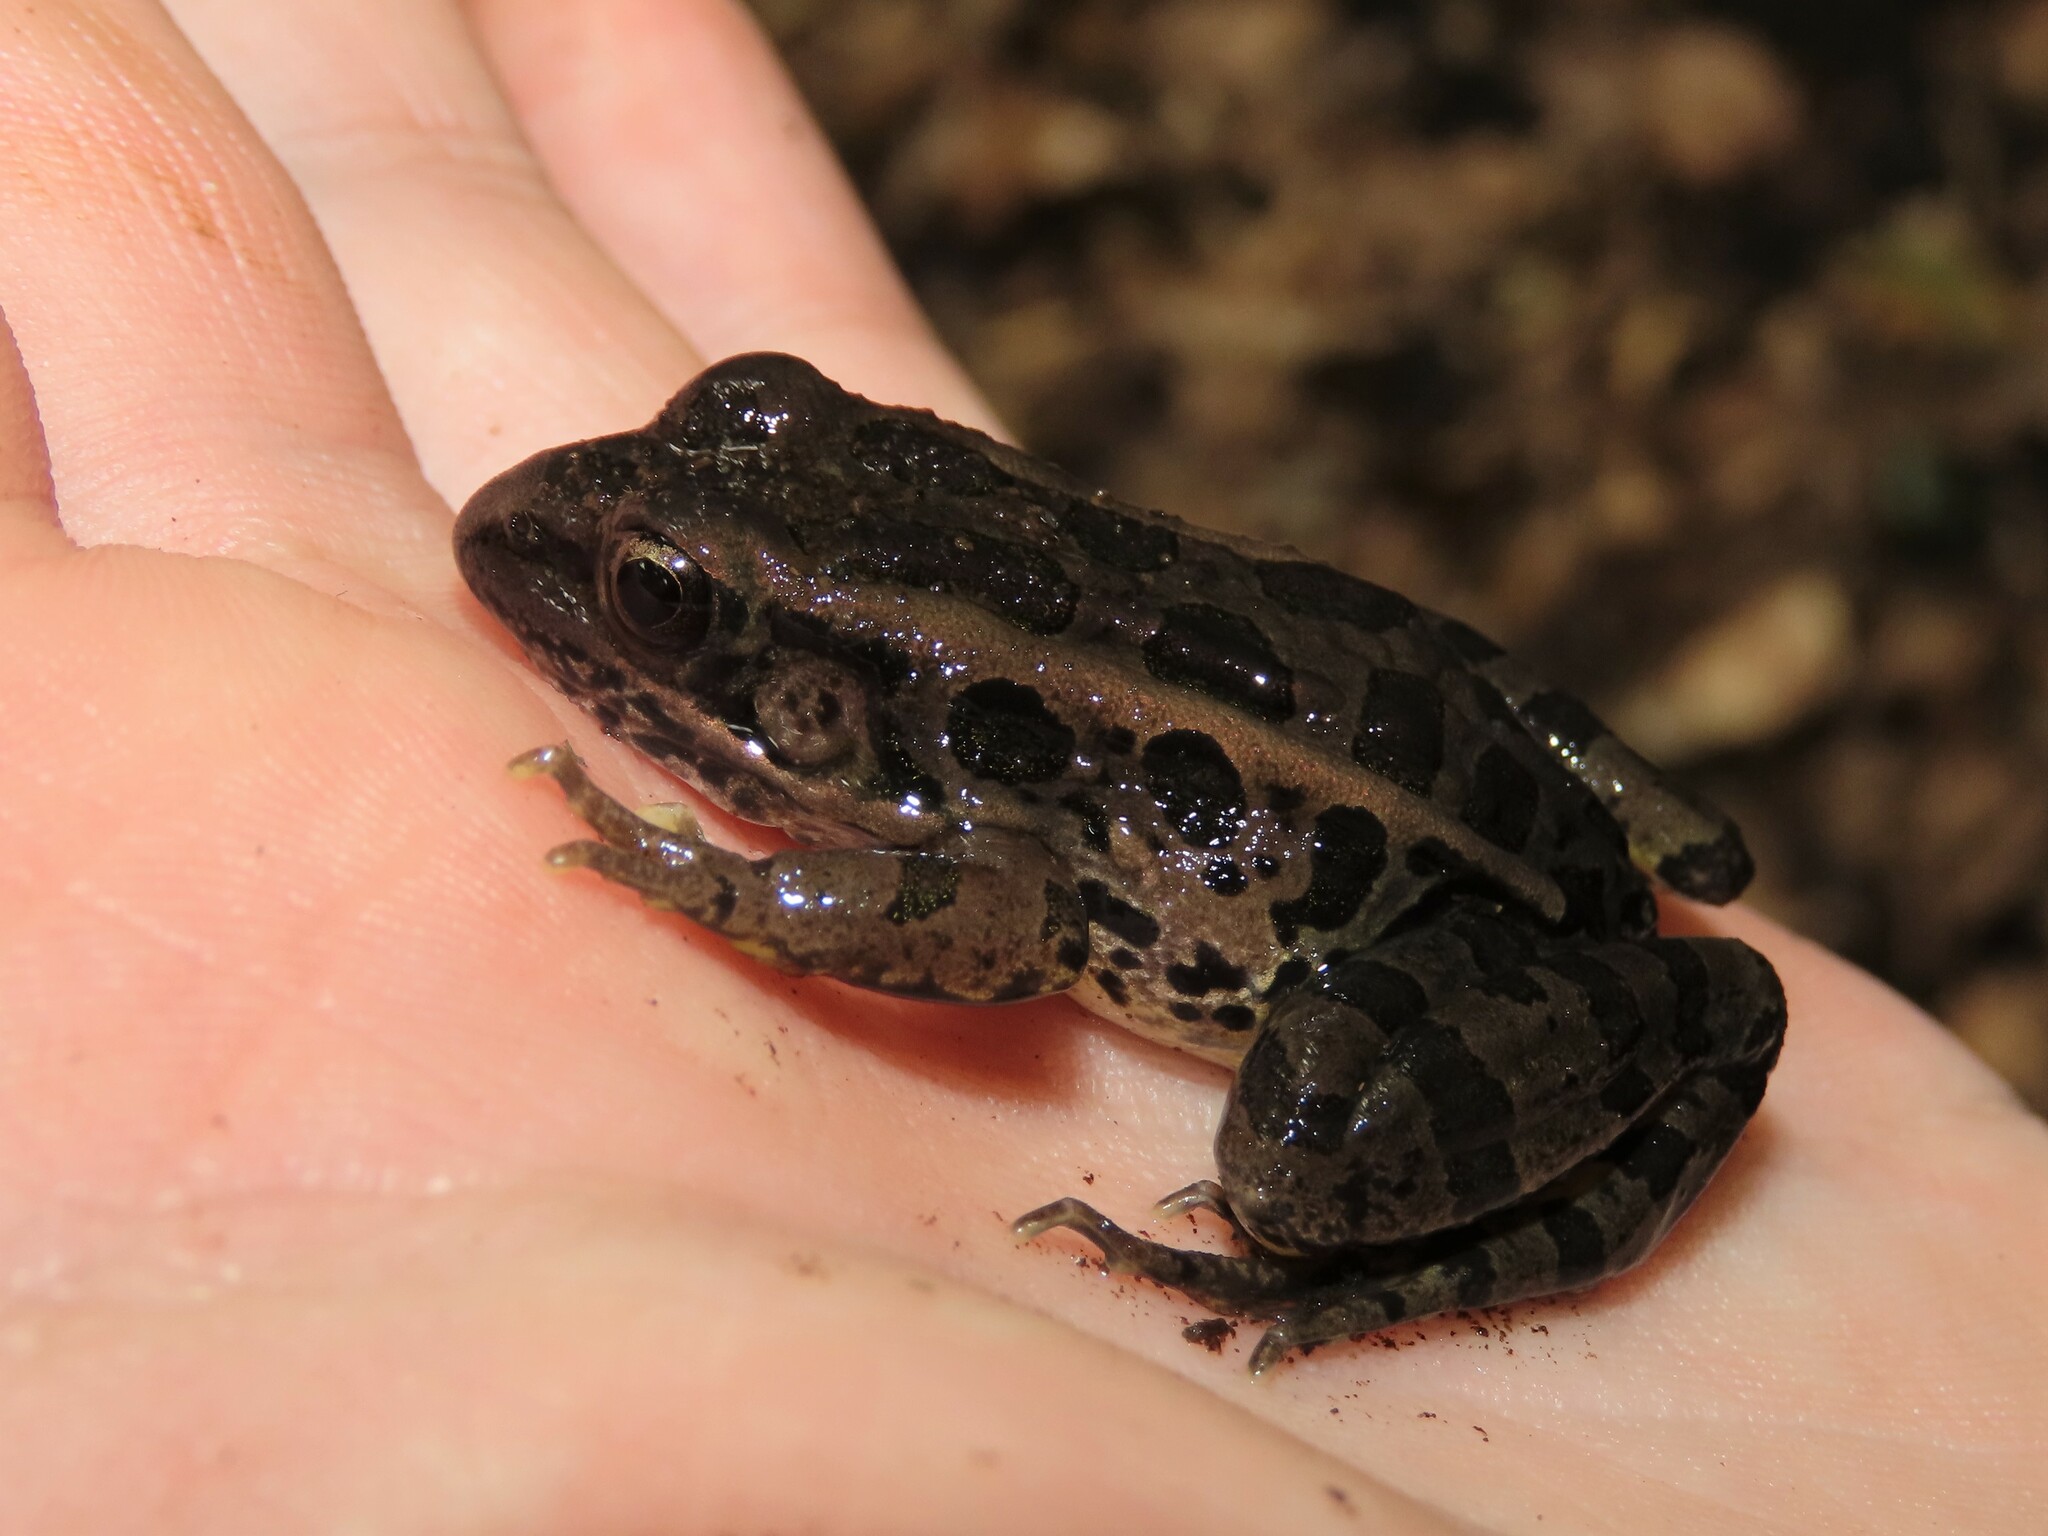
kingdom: Animalia
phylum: Chordata
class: Amphibia
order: Anura
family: Ranidae
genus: Lithobates
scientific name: Lithobates palustris
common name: Pickerel frog
